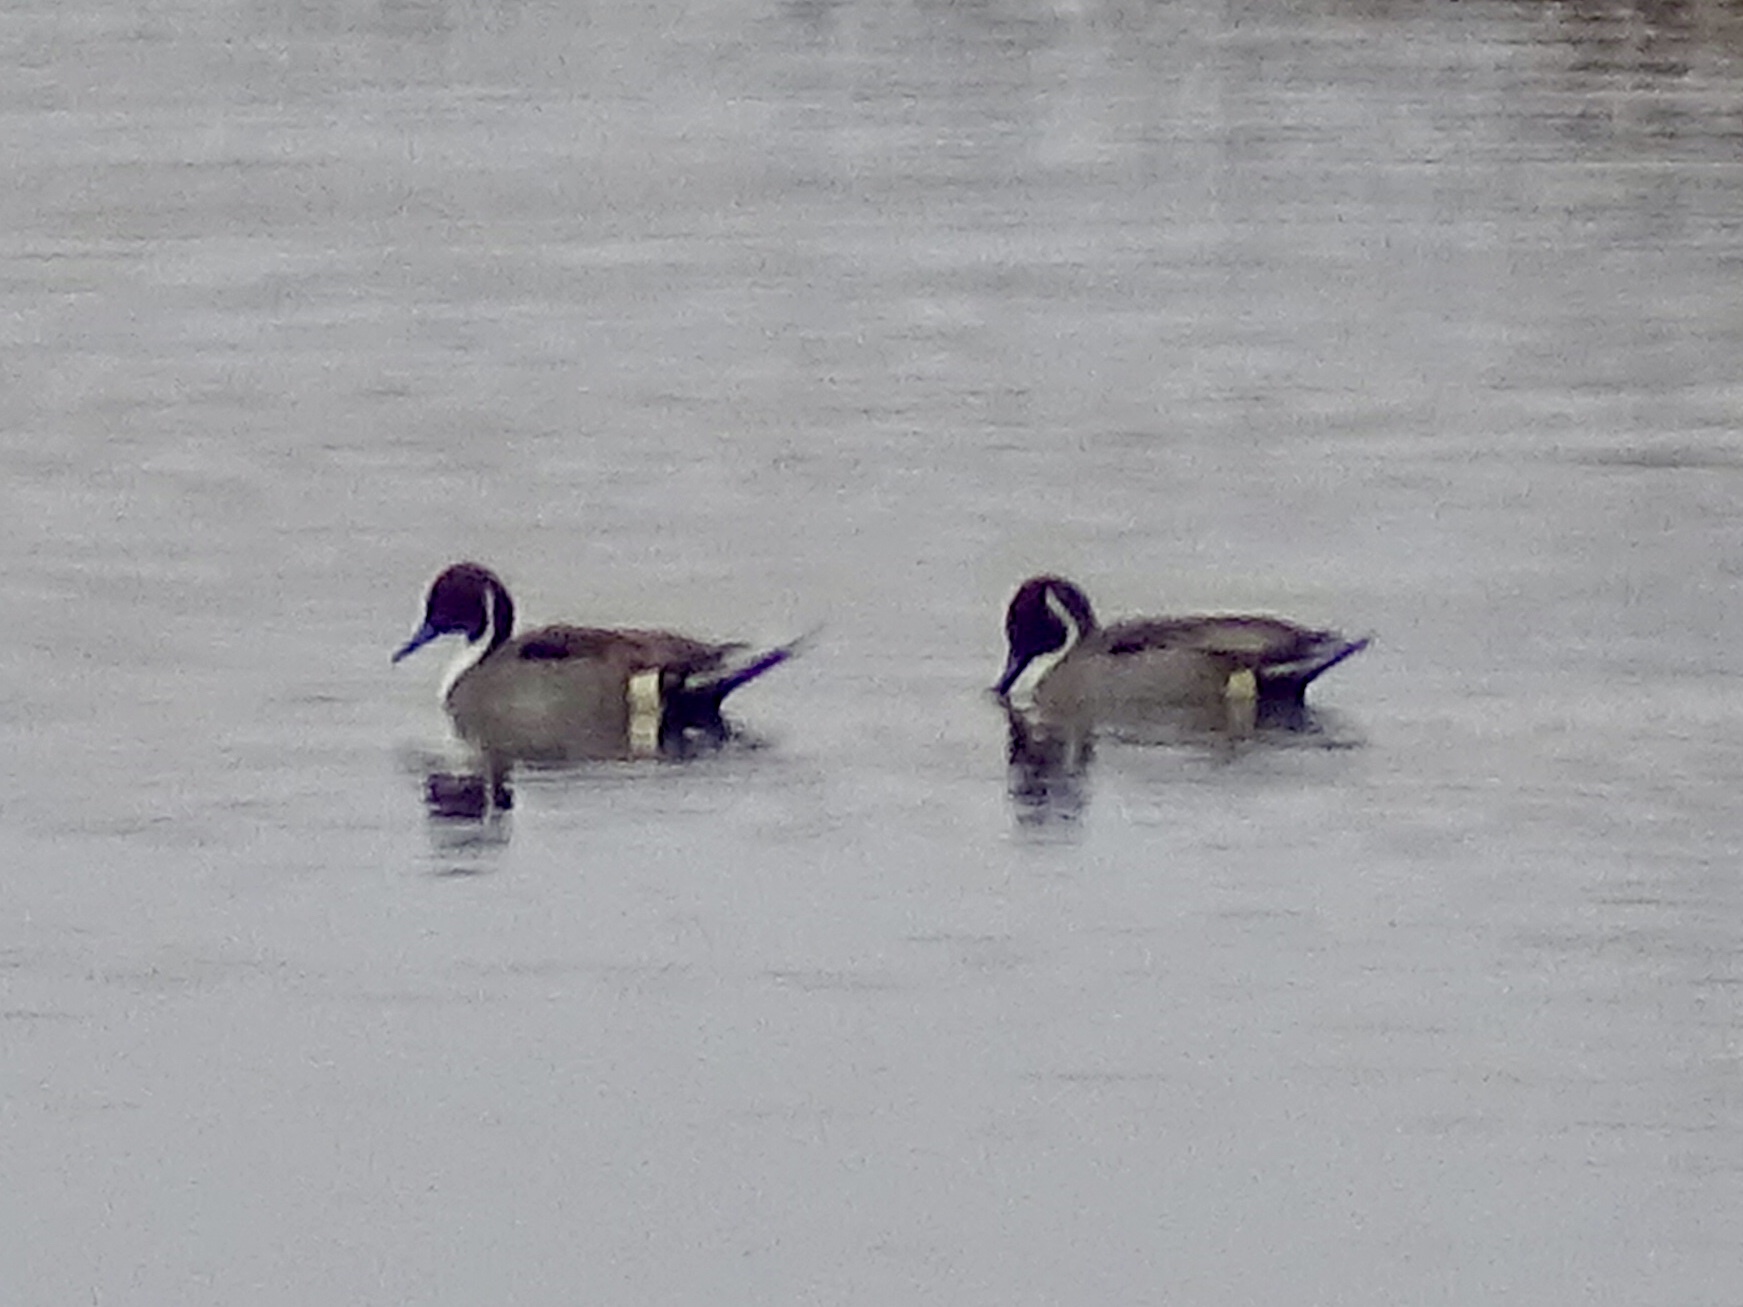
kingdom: Animalia
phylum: Chordata
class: Aves
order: Anseriformes
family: Anatidae
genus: Anas
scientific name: Anas acuta
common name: Northern pintail
